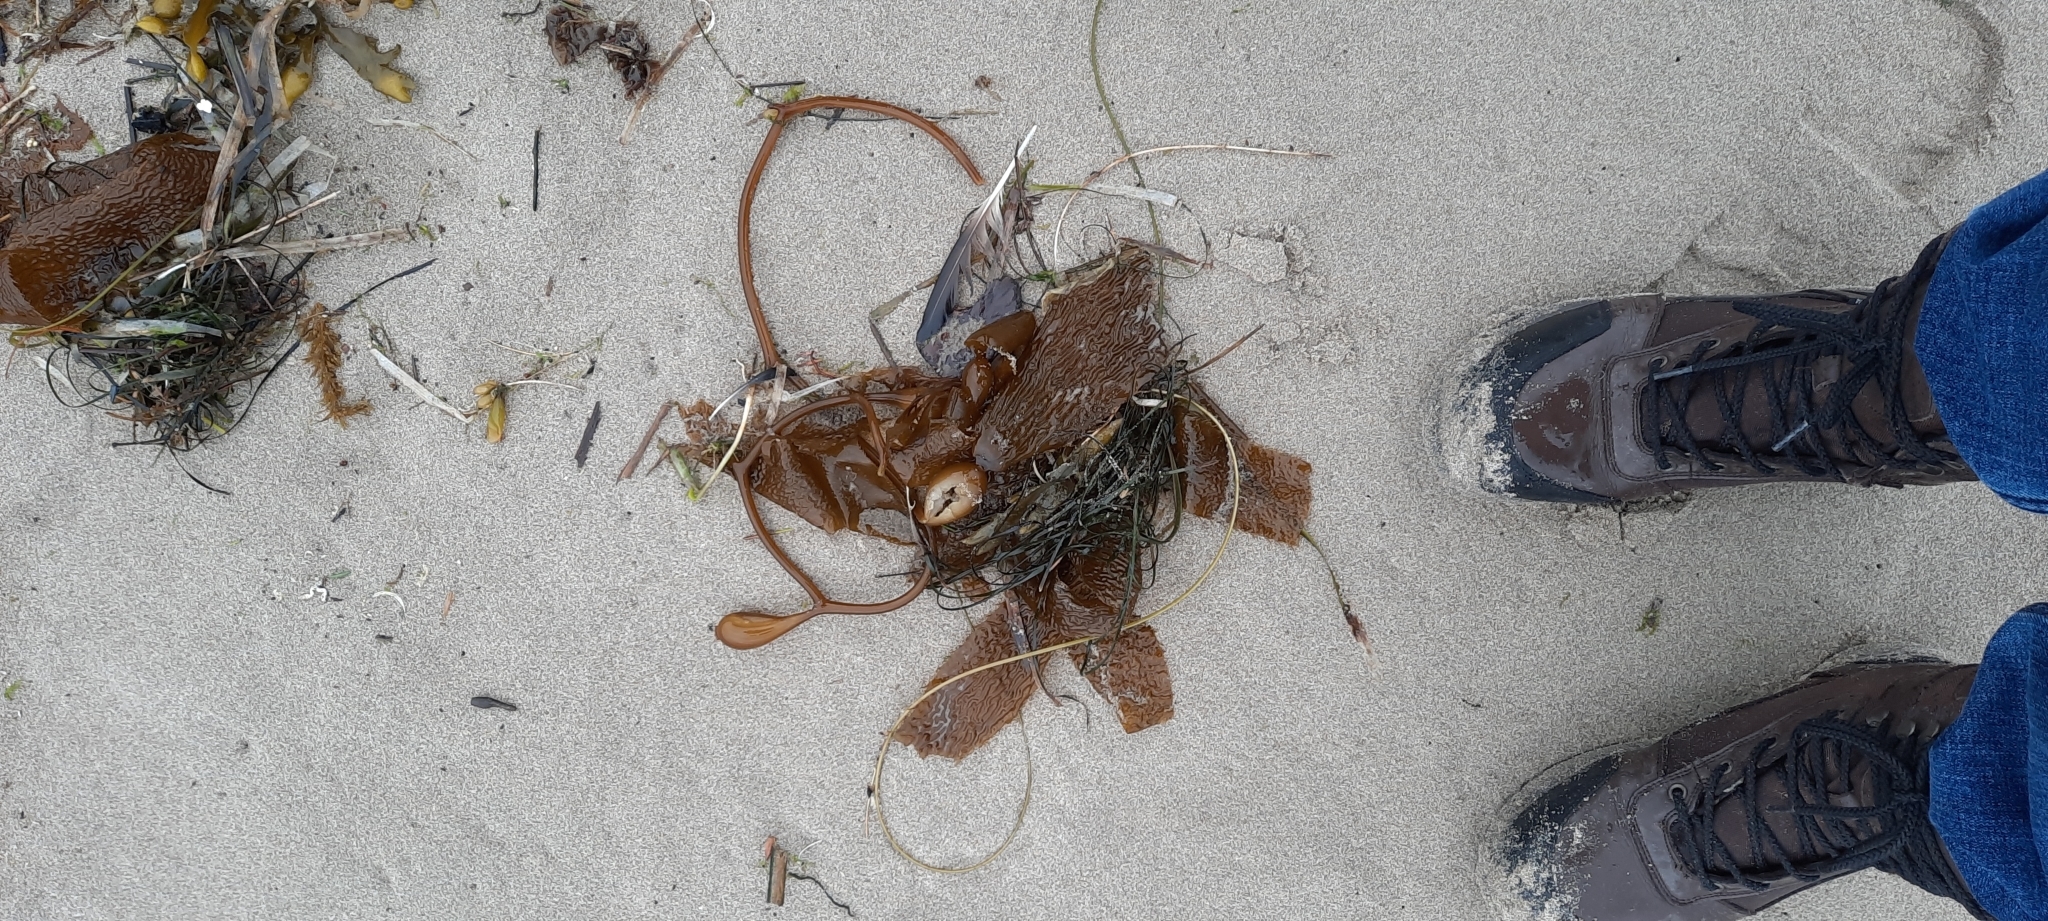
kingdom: Chromista
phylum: Ochrophyta
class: Phaeophyceae
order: Laminariales
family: Laminariaceae
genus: Macrocystis
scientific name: Macrocystis pyrifera
